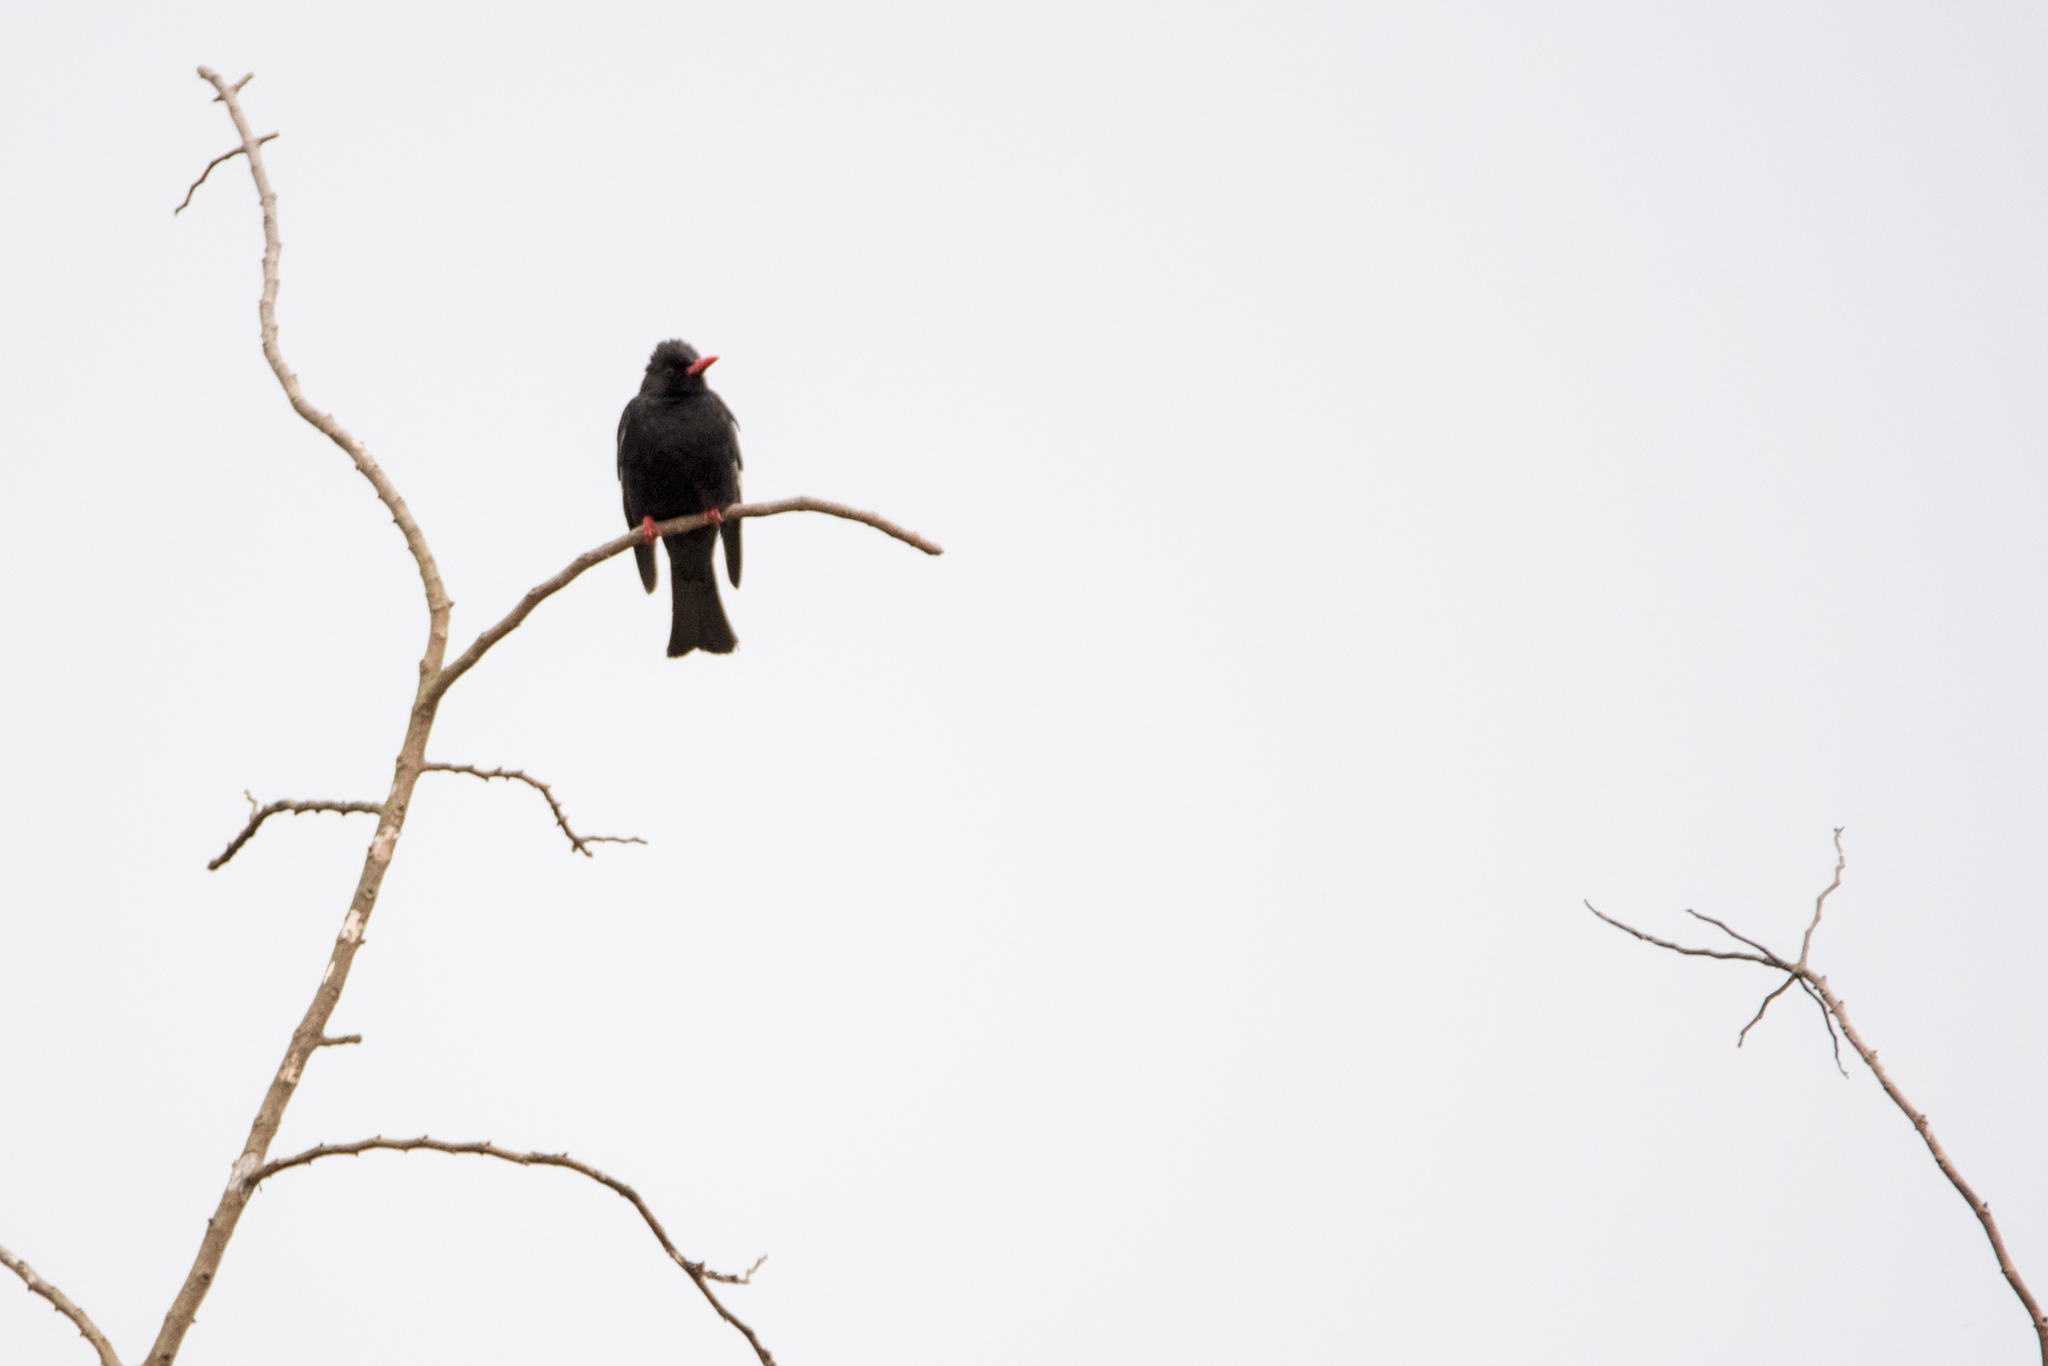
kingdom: Animalia
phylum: Chordata
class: Aves
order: Passeriformes
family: Pycnonotidae
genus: Hypsipetes
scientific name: Hypsipetes leucocephalus
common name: Black bulbul
